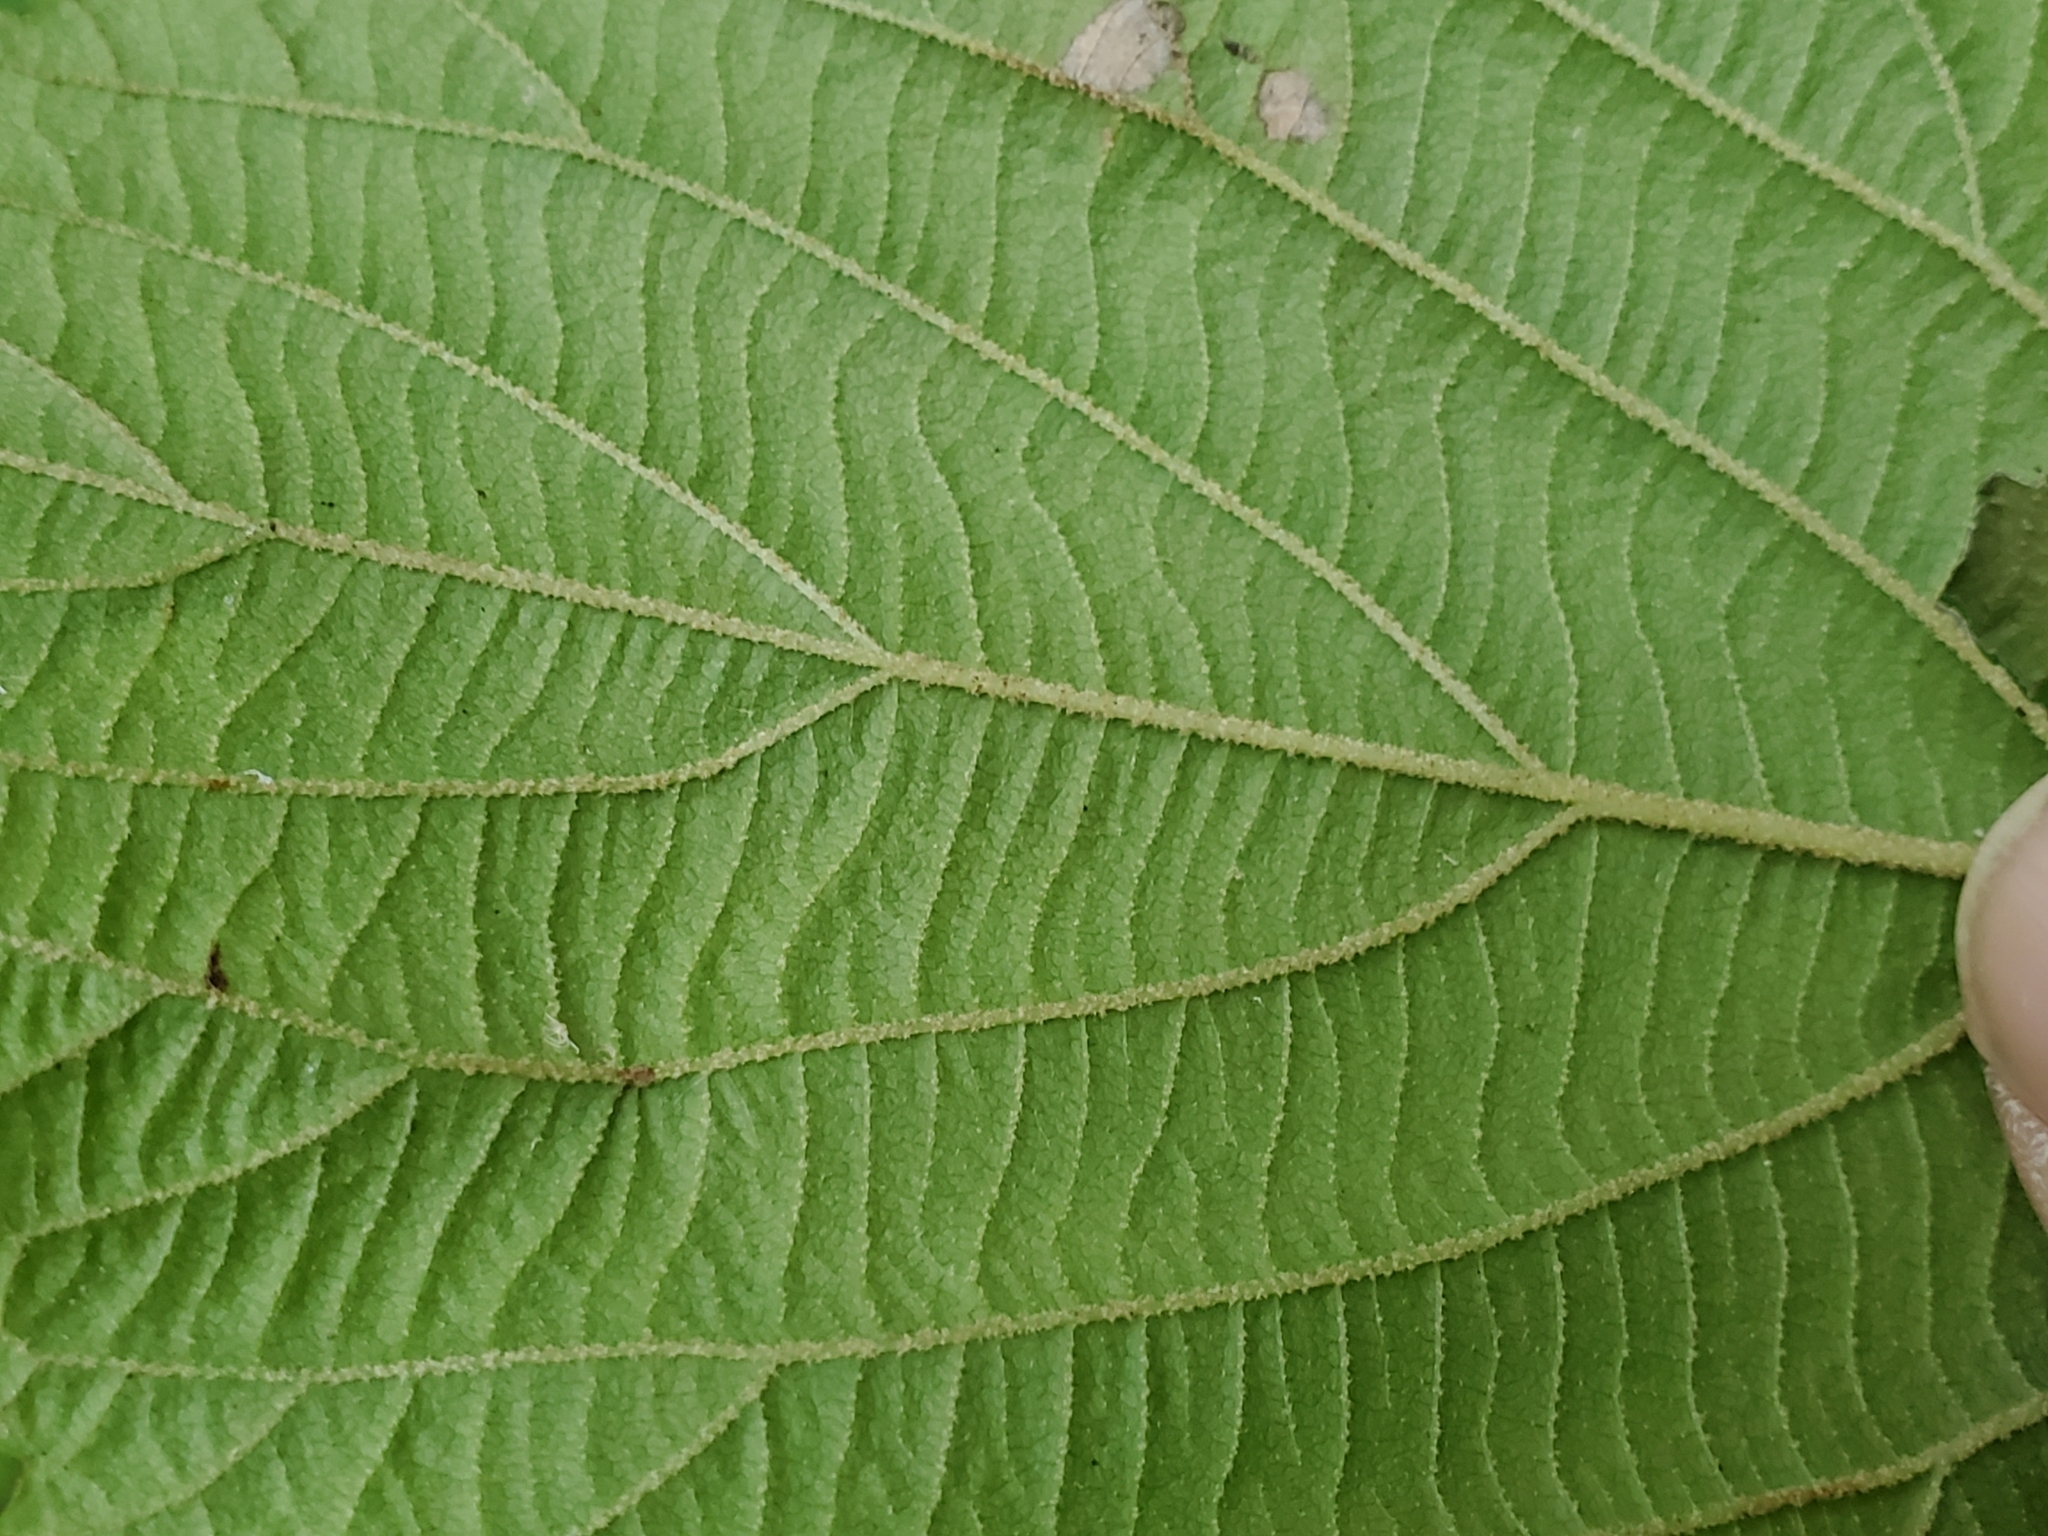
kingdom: Plantae
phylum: Tracheophyta
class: Magnoliopsida
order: Dipsacales
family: Viburnaceae
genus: Viburnum
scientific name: Viburnum lantanoides
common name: Hobblebush
